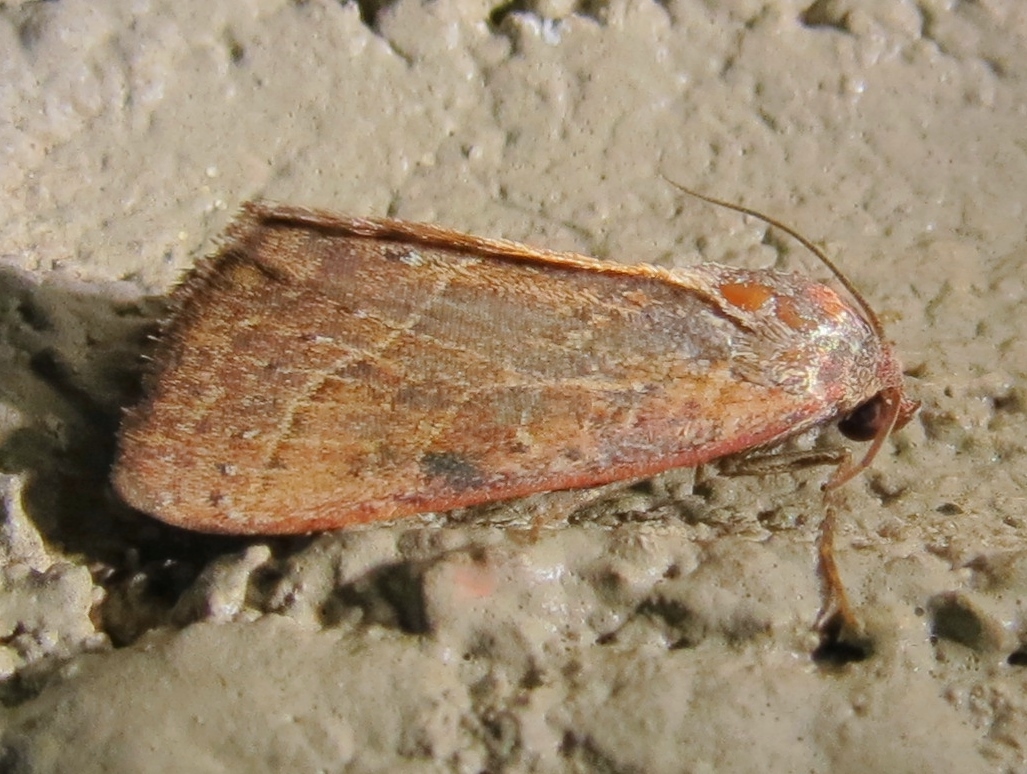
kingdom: Animalia
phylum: Arthropoda
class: Insecta
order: Lepidoptera
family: Noctuidae
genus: Galgula
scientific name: Galgula partita
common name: Wedgeling
